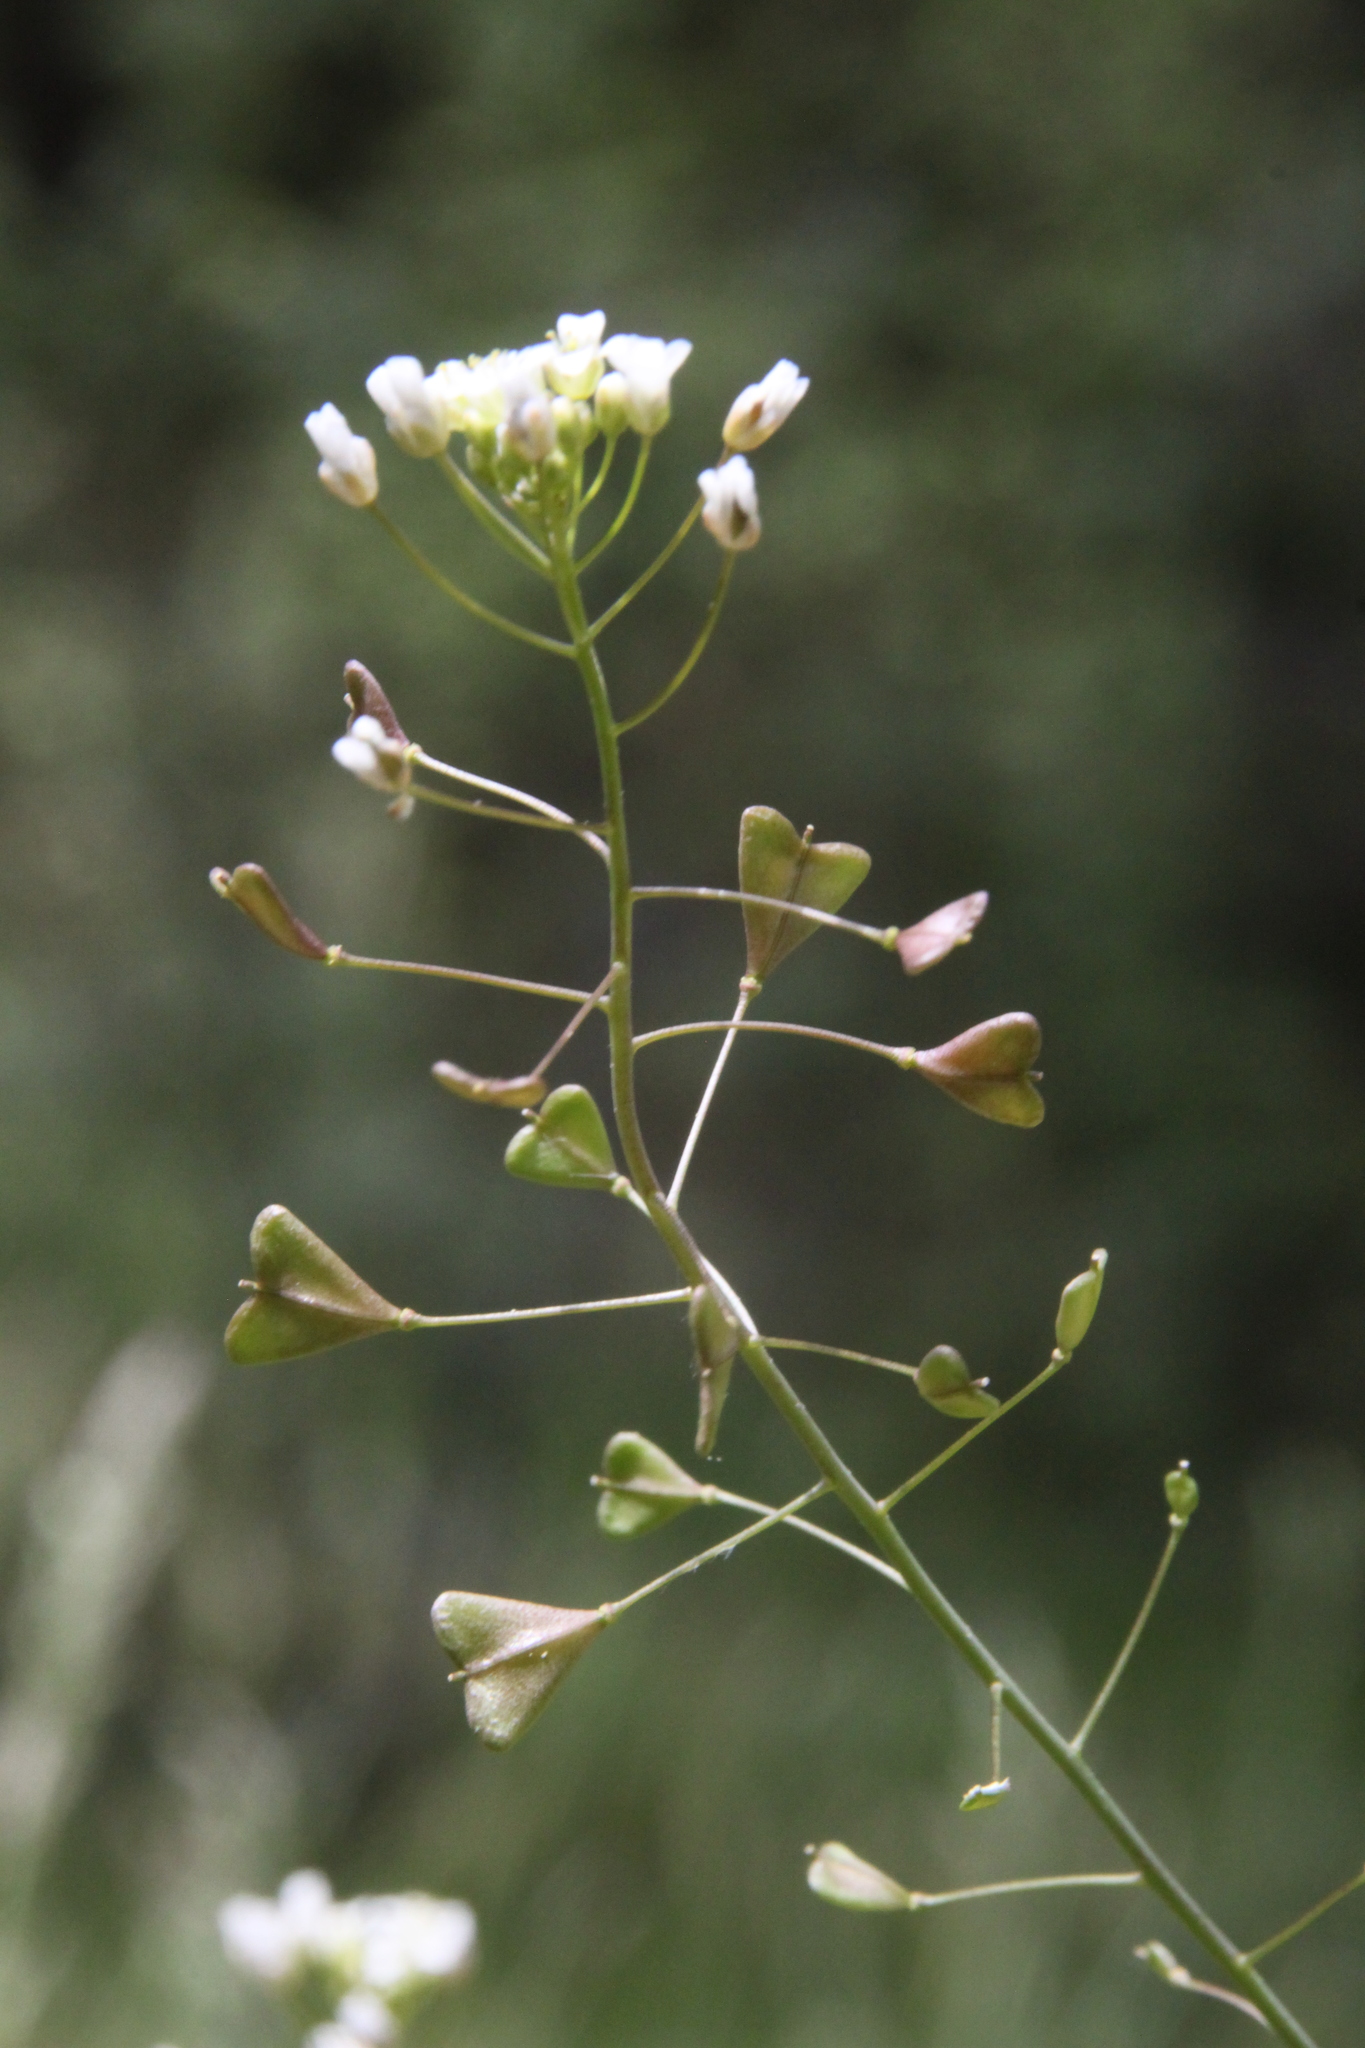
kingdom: Plantae
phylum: Tracheophyta
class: Magnoliopsida
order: Brassicales
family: Brassicaceae
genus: Capsella
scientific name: Capsella bursa-pastoris
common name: Shepherd's purse
